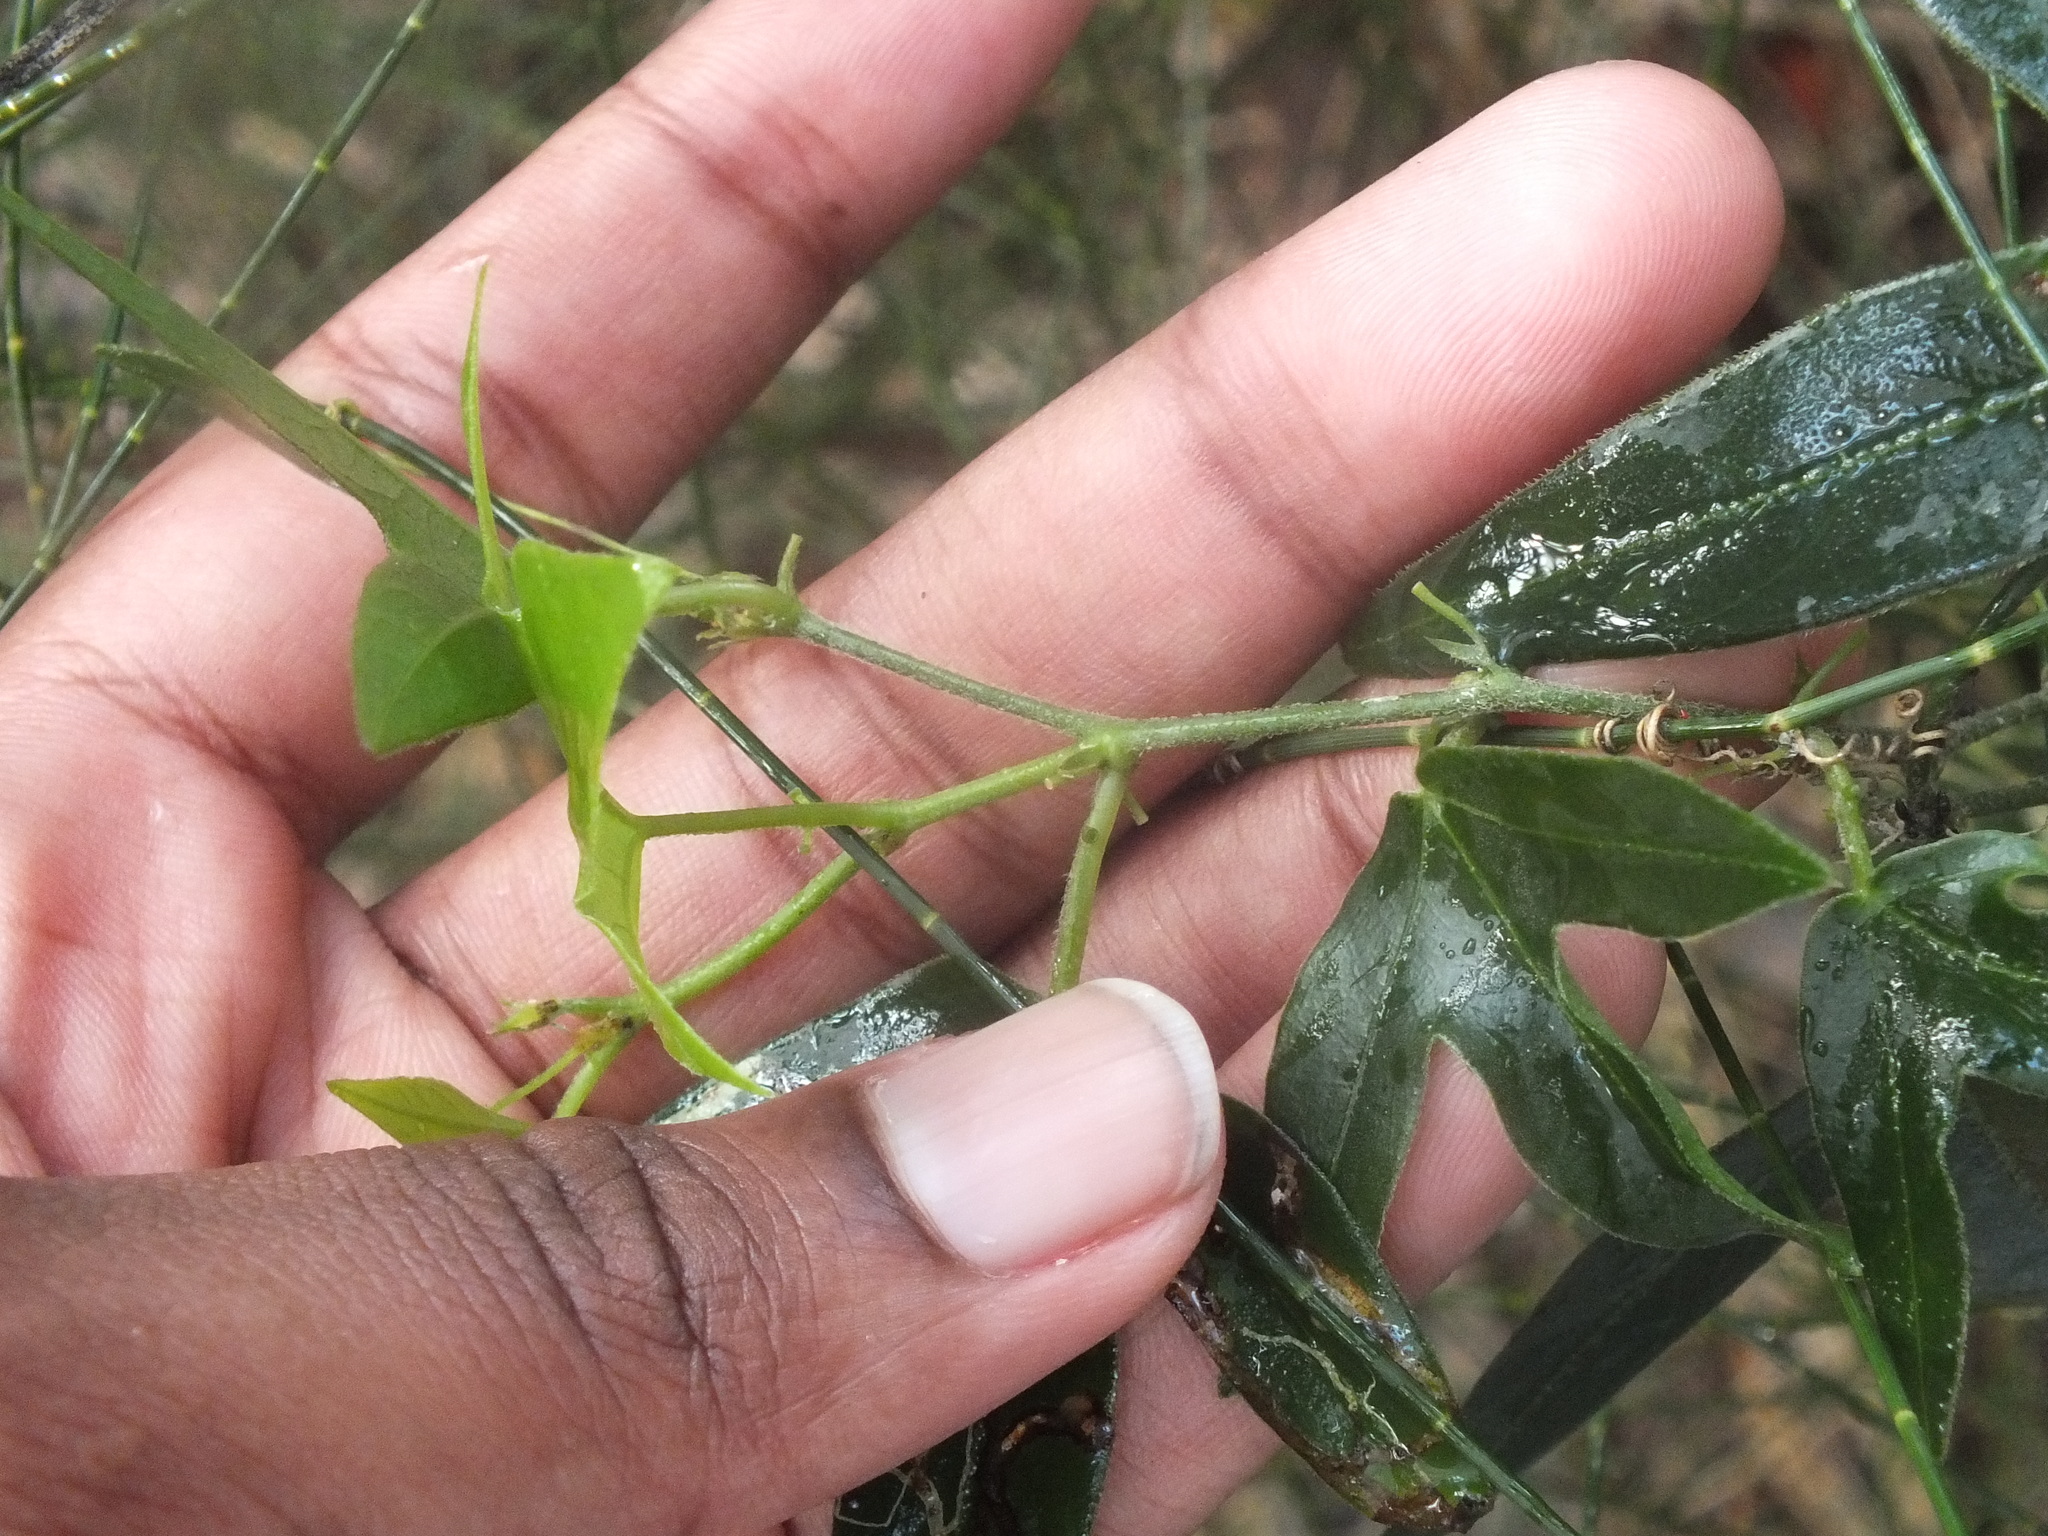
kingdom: Plantae
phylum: Tracheophyta
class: Magnoliopsida
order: Malpighiales
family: Passifloraceae
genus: Passiflora
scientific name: Passiflora suberosa
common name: Wild passionfruit
